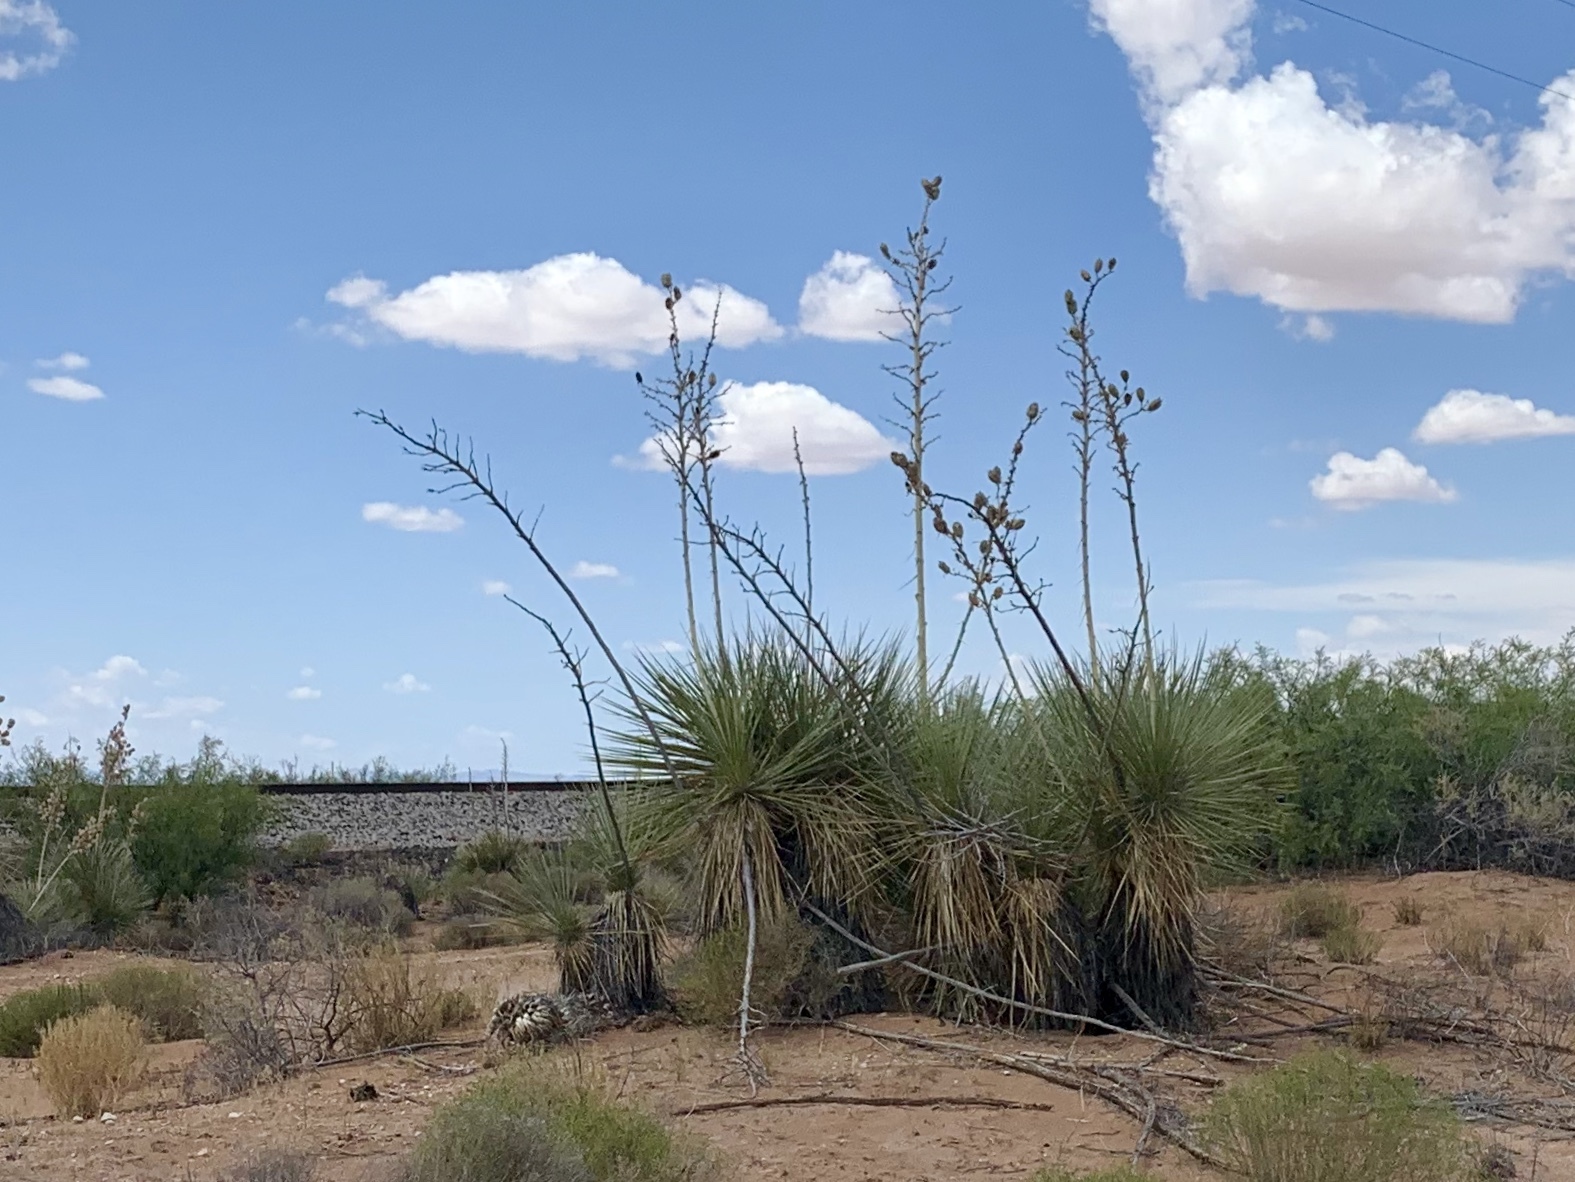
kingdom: Plantae
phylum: Tracheophyta
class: Liliopsida
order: Asparagales
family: Asparagaceae
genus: Yucca
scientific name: Yucca elata
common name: Palmella
